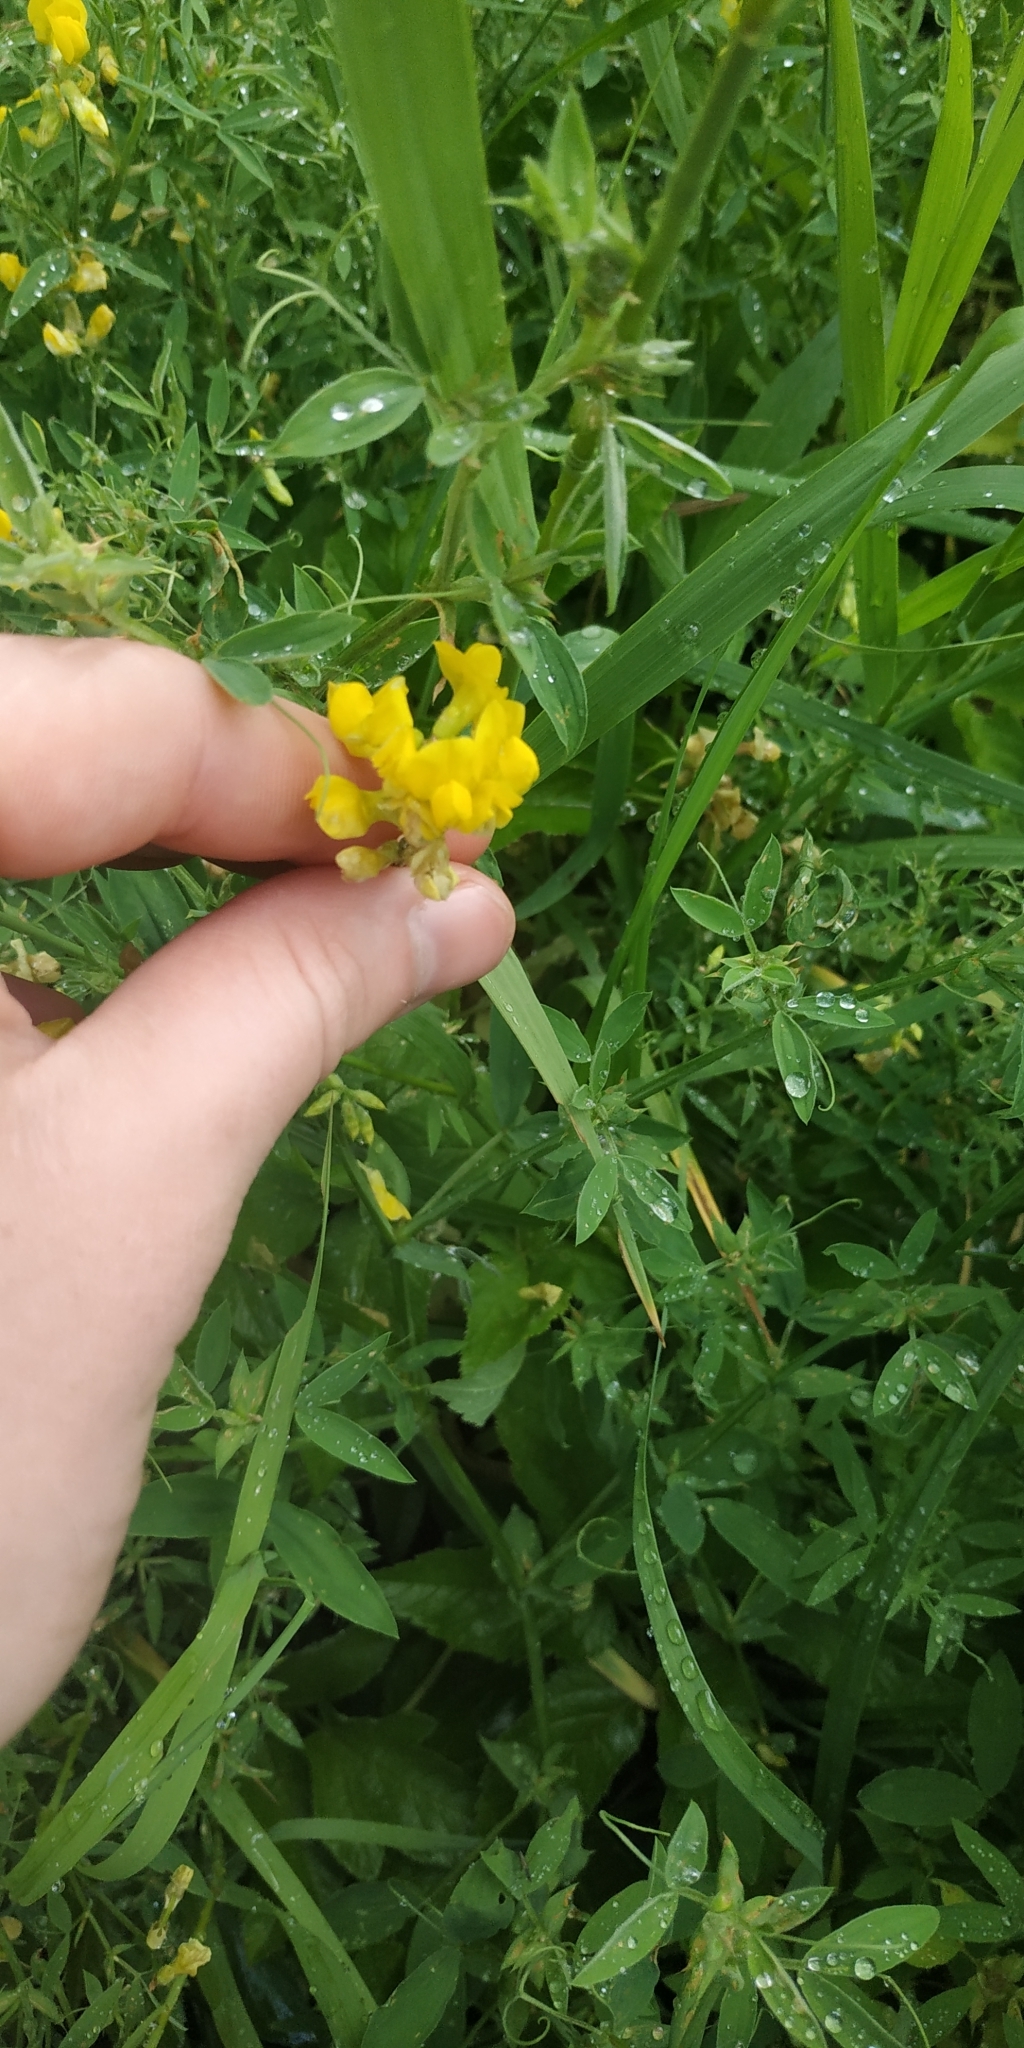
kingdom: Plantae
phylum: Tracheophyta
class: Magnoliopsida
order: Fabales
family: Fabaceae
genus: Lathyrus
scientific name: Lathyrus pratensis
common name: Meadow vetchling
